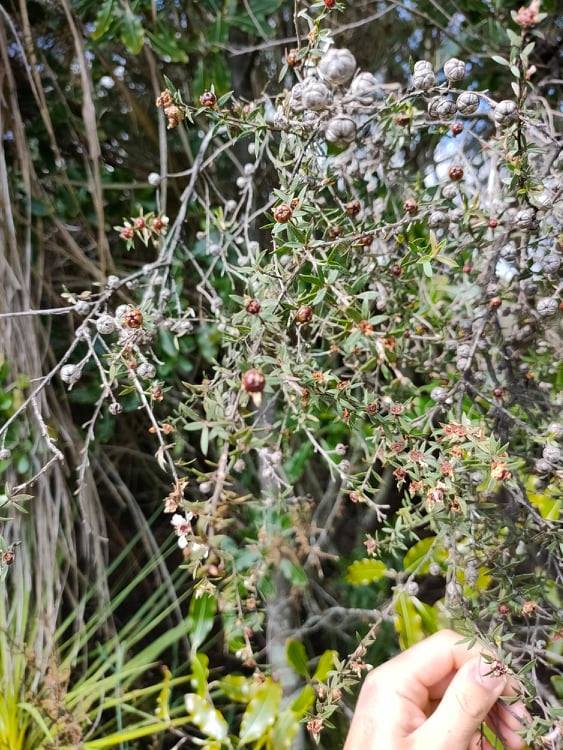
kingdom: Plantae
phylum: Tracheophyta
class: Magnoliopsida
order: Myrtales
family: Myrtaceae
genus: Leptospermum
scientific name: Leptospermum scoparium
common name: Broom tea-tree
